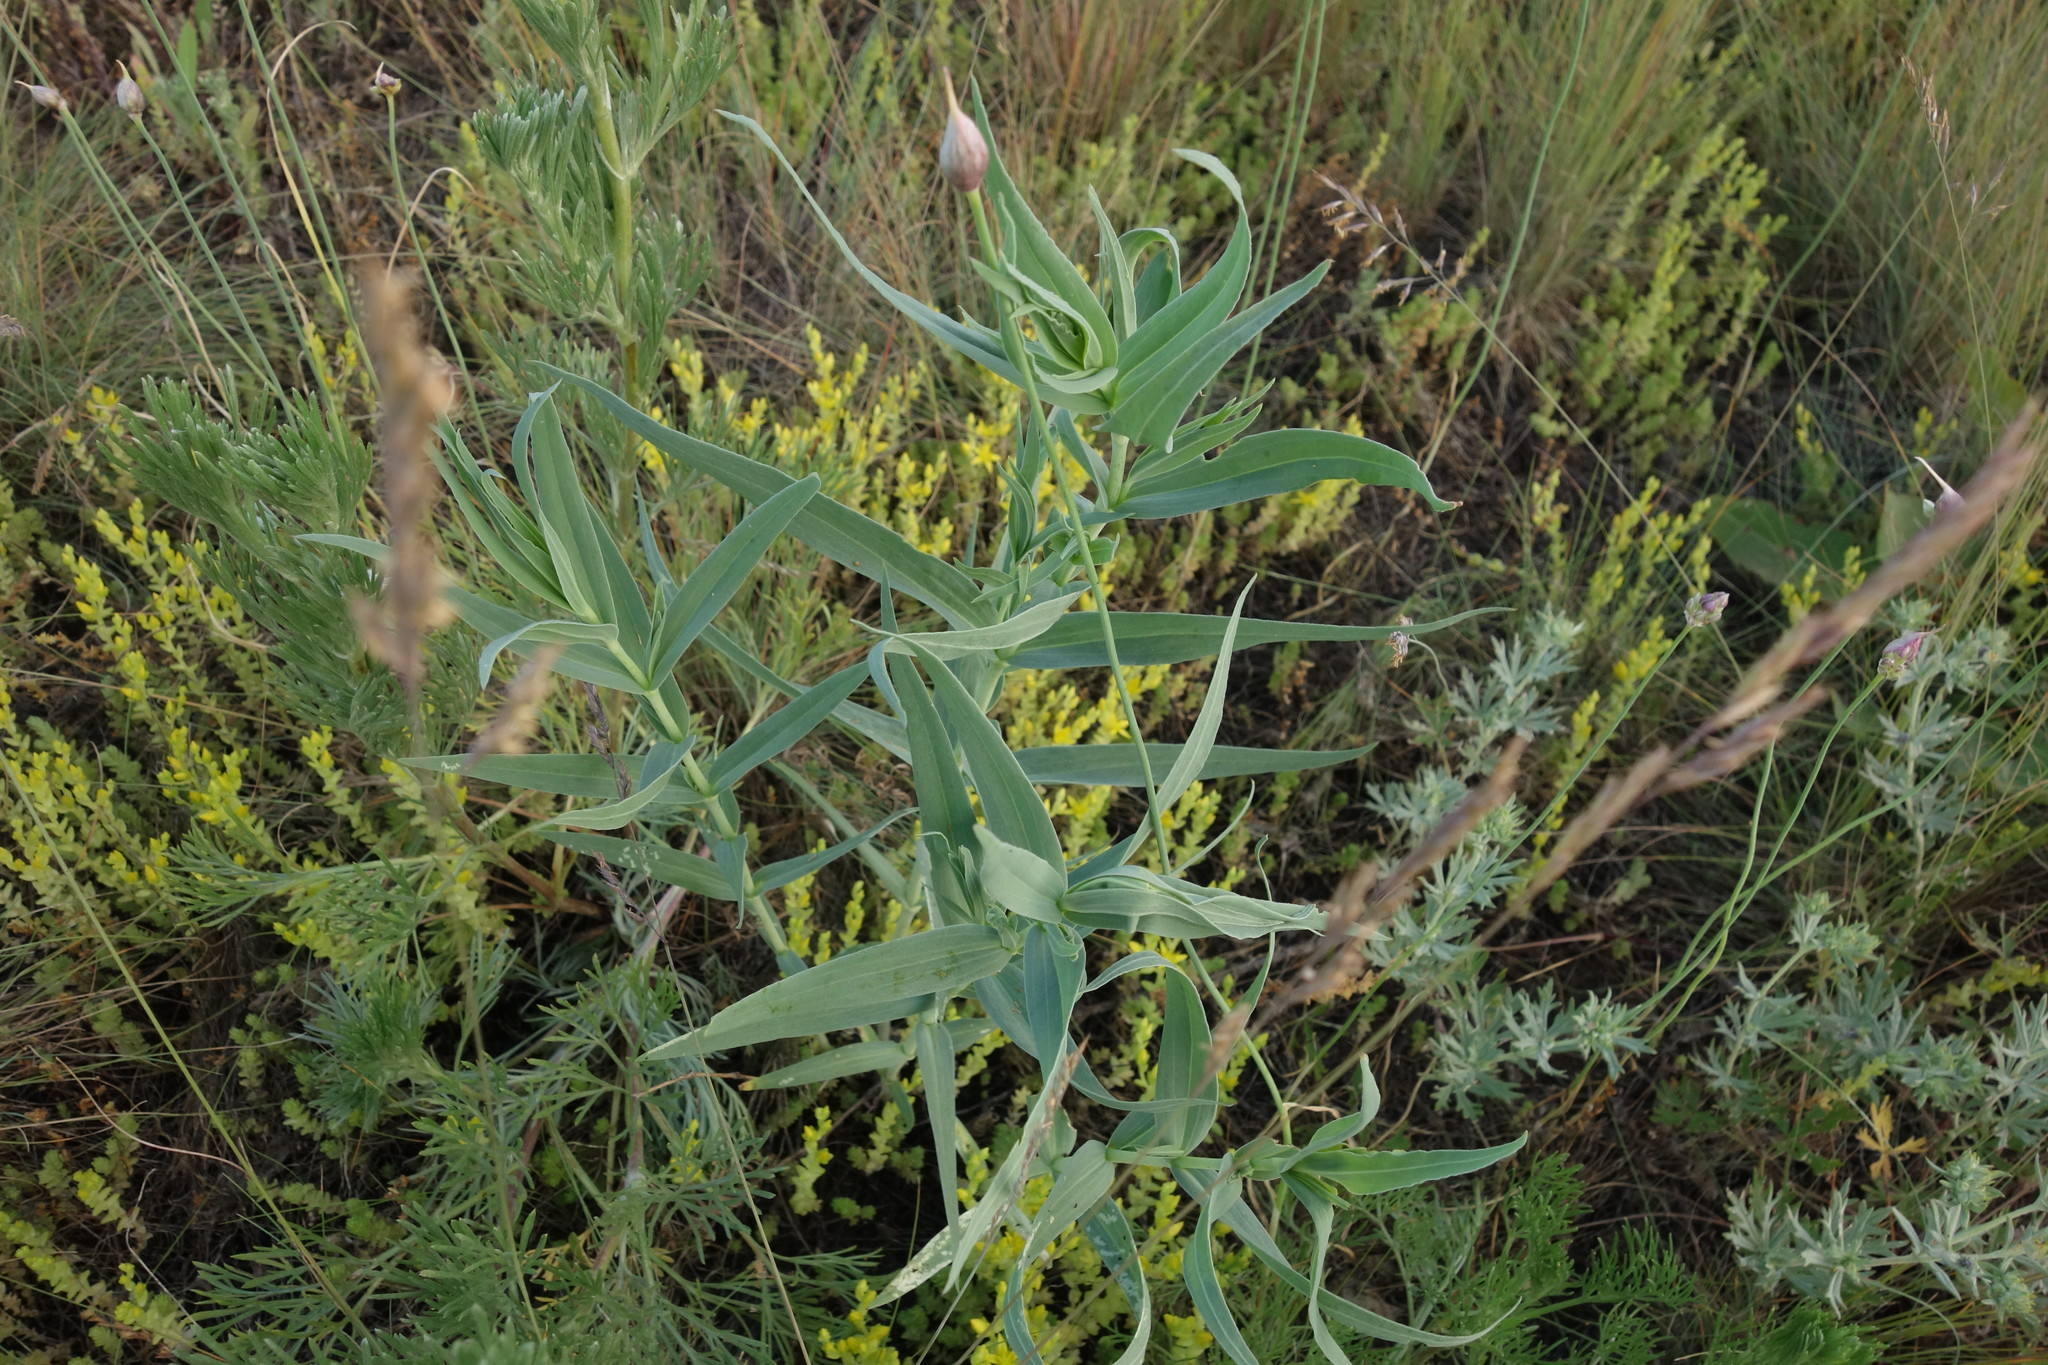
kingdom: Plantae
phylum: Tracheophyta
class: Magnoliopsida
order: Caryophyllales
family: Caryophyllaceae
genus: Gypsophila
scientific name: Gypsophila paniculata
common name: Baby's-breath
